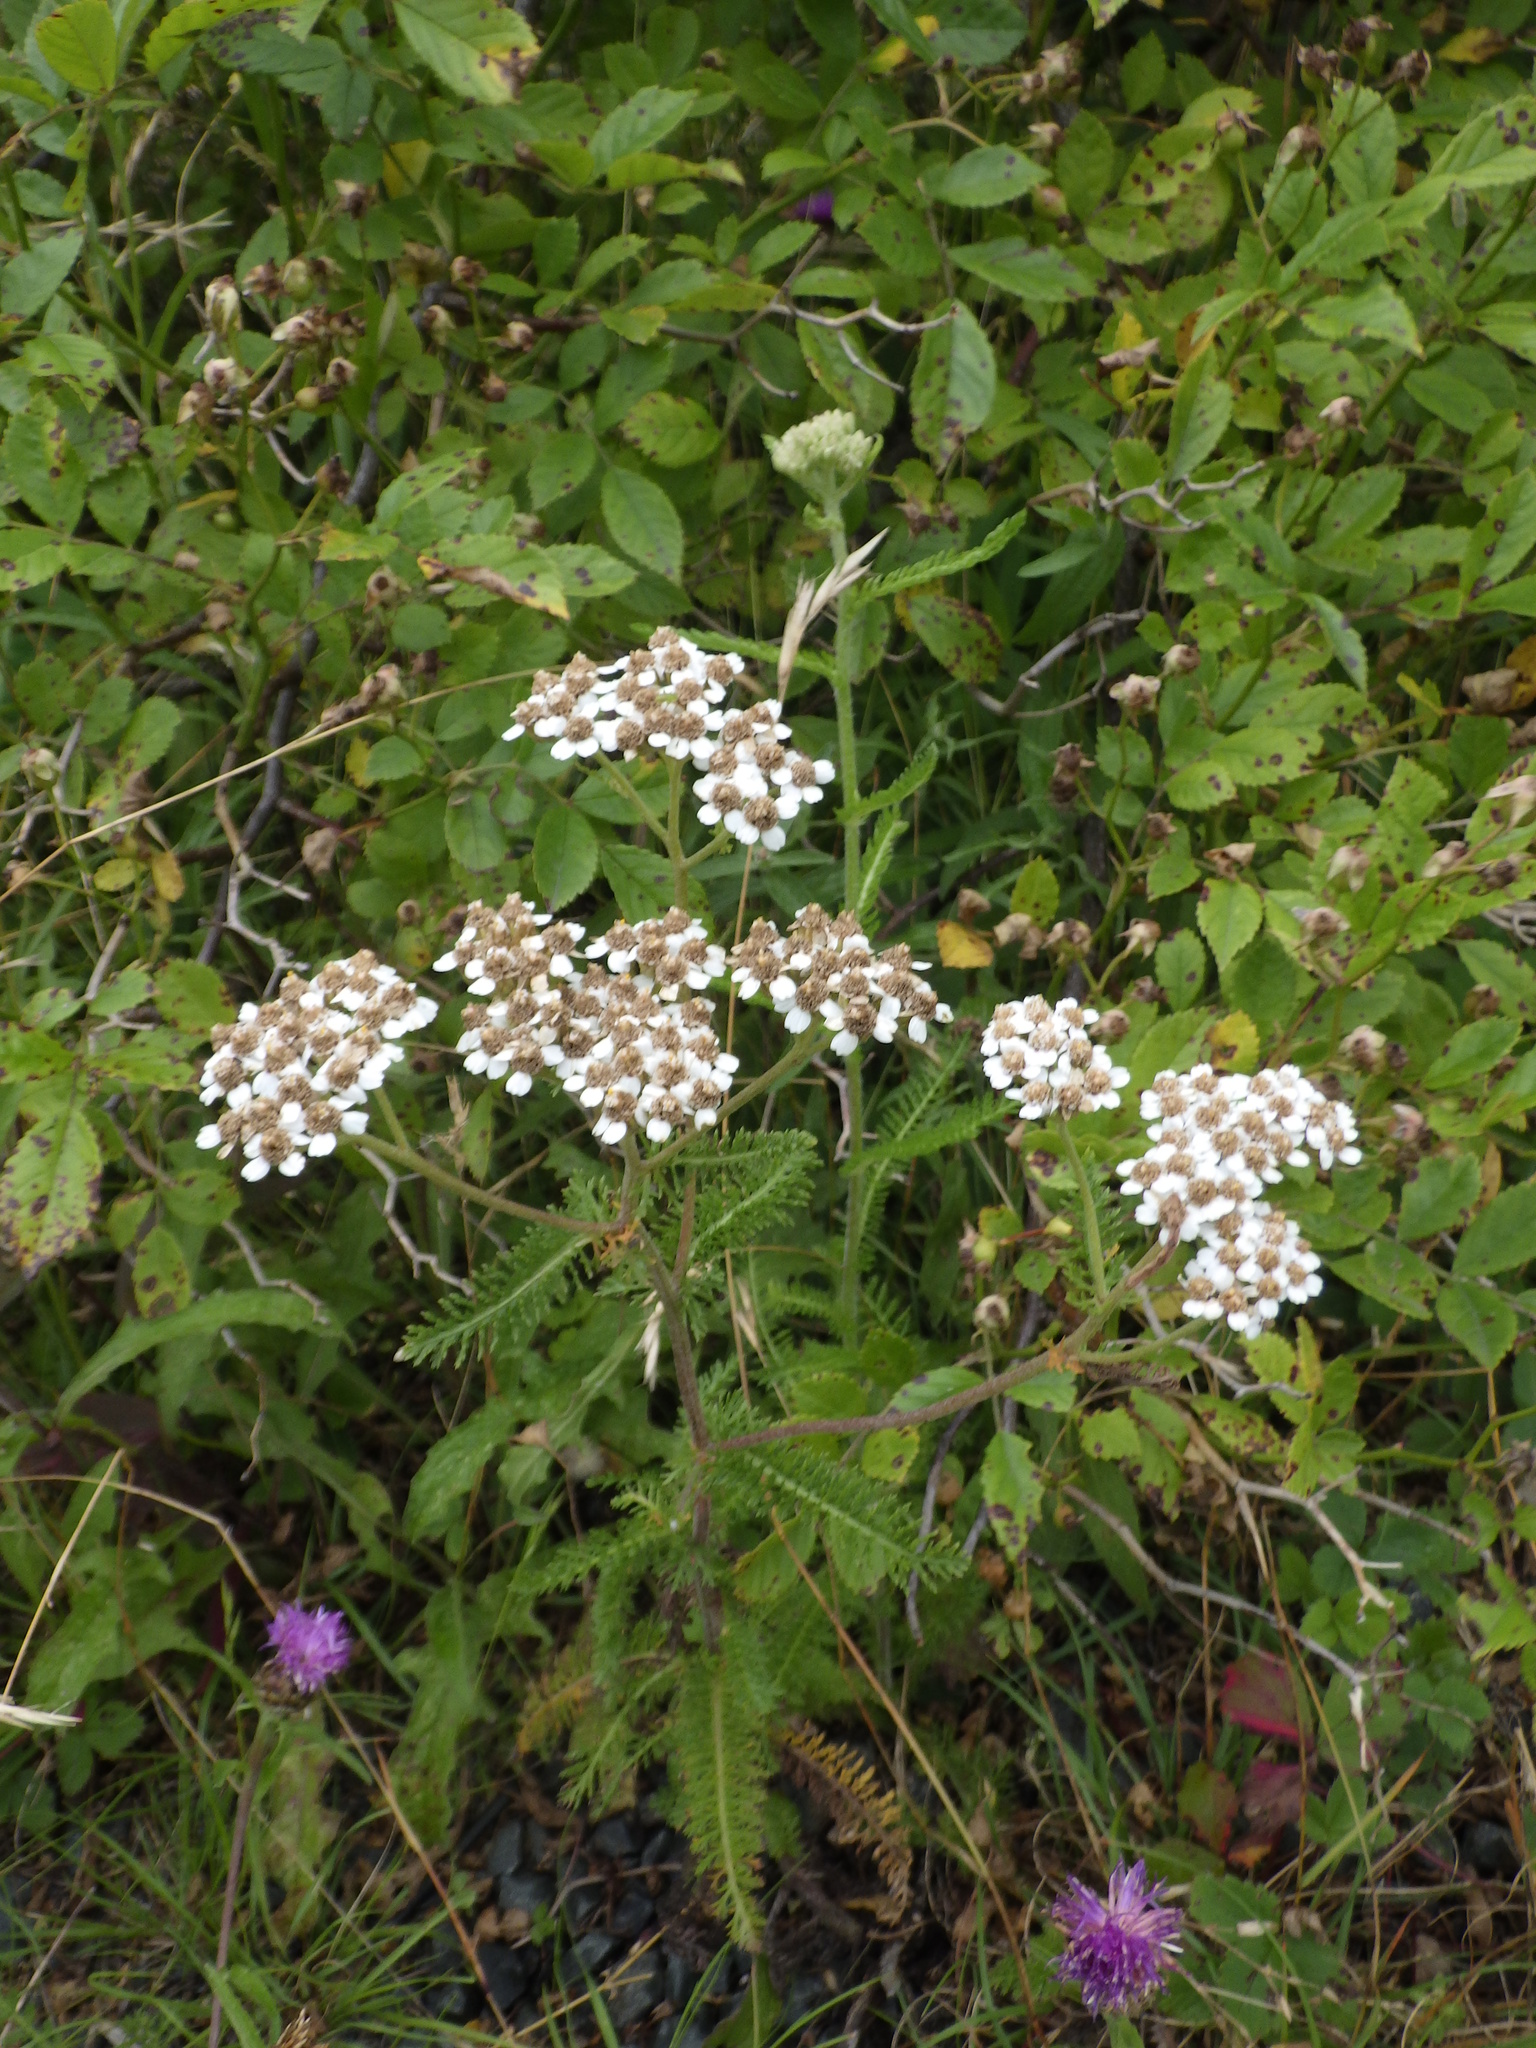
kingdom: Plantae
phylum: Tracheophyta
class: Magnoliopsida
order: Asterales
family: Asteraceae
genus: Achillea
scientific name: Achillea millefolium
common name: Yarrow
